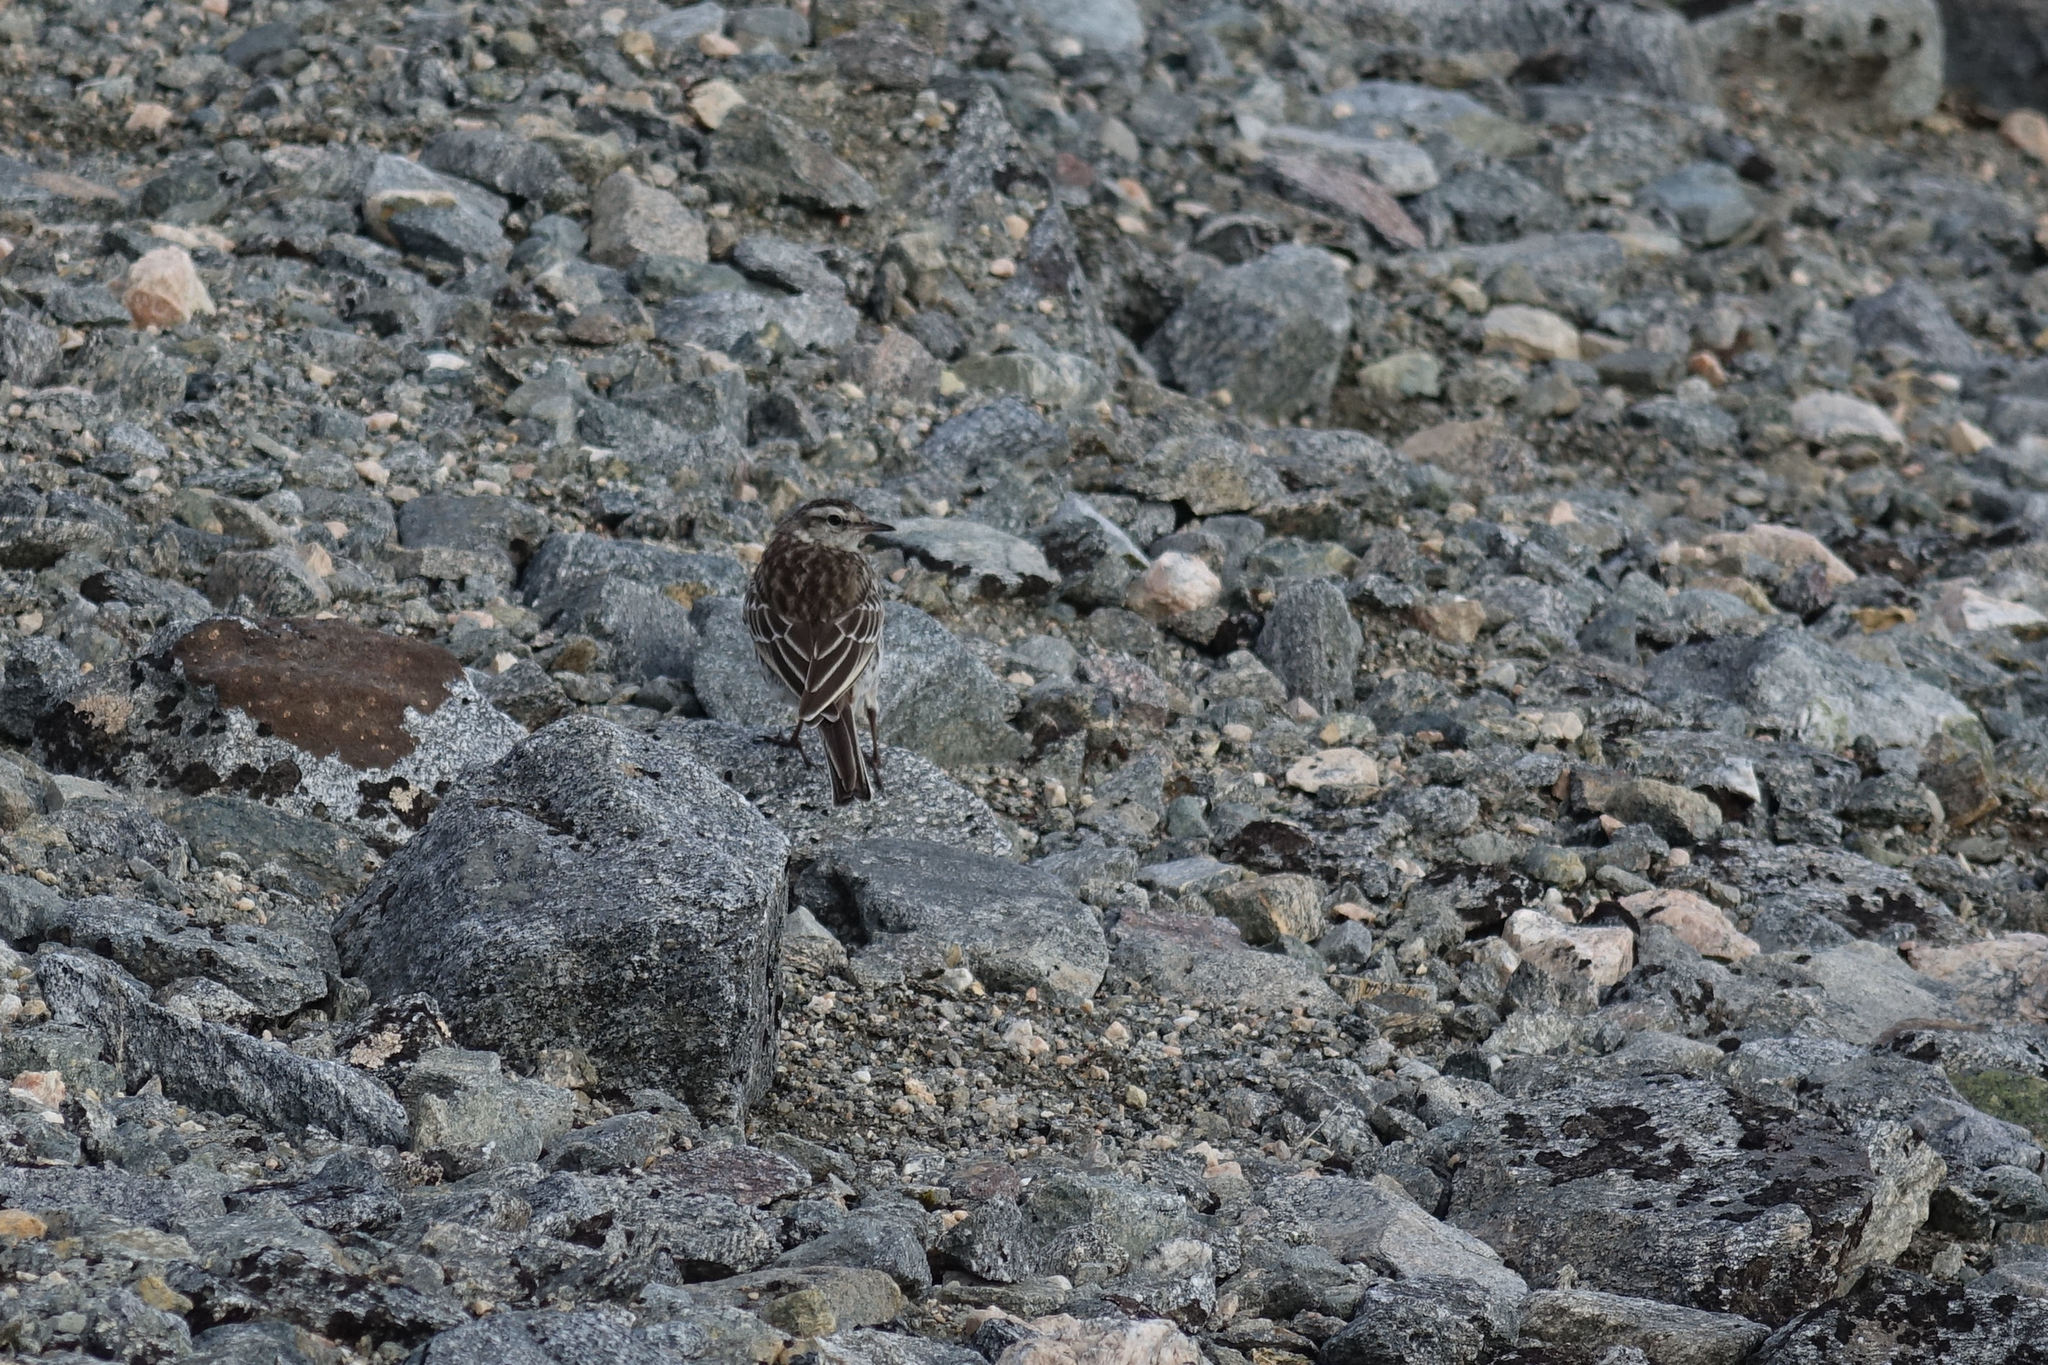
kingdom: Animalia
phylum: Chordata
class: Aves
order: Passeriformes
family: Motacillidae
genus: Anthus
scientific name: Anthus novaeseelandiae
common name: New zealand pipit
